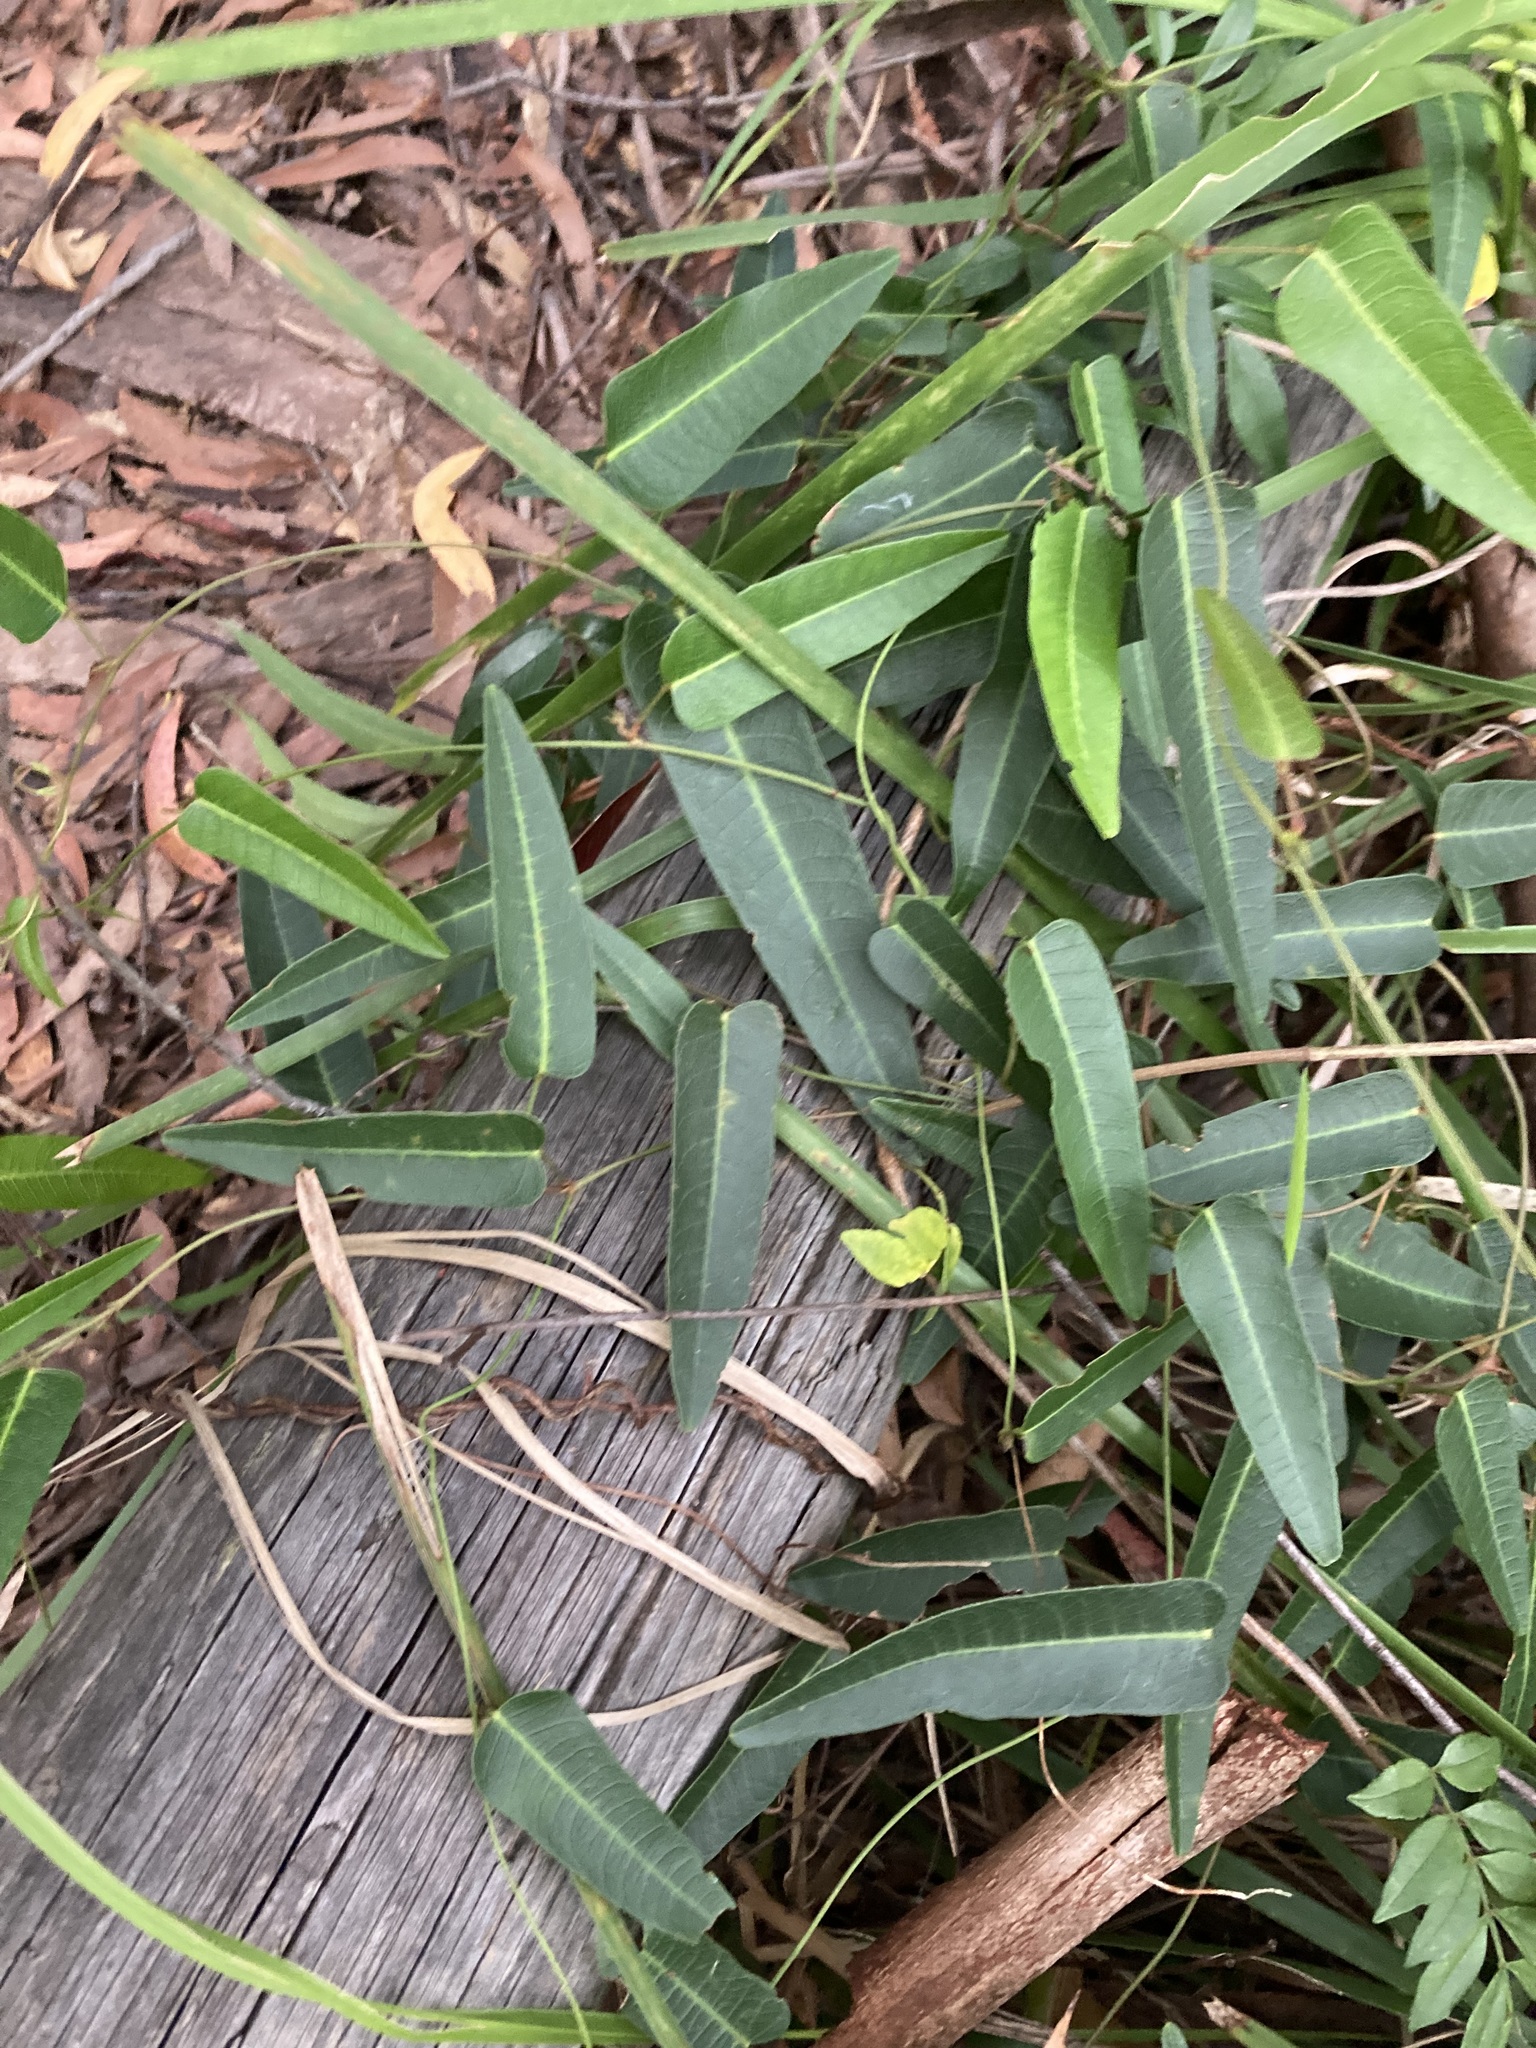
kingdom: Plantae
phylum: Tracheophyta
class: Magnoliopsida
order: Fabales
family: Fabaceae
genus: Hardenbergia
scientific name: Hardenbergia violacea
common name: Coral-pea
